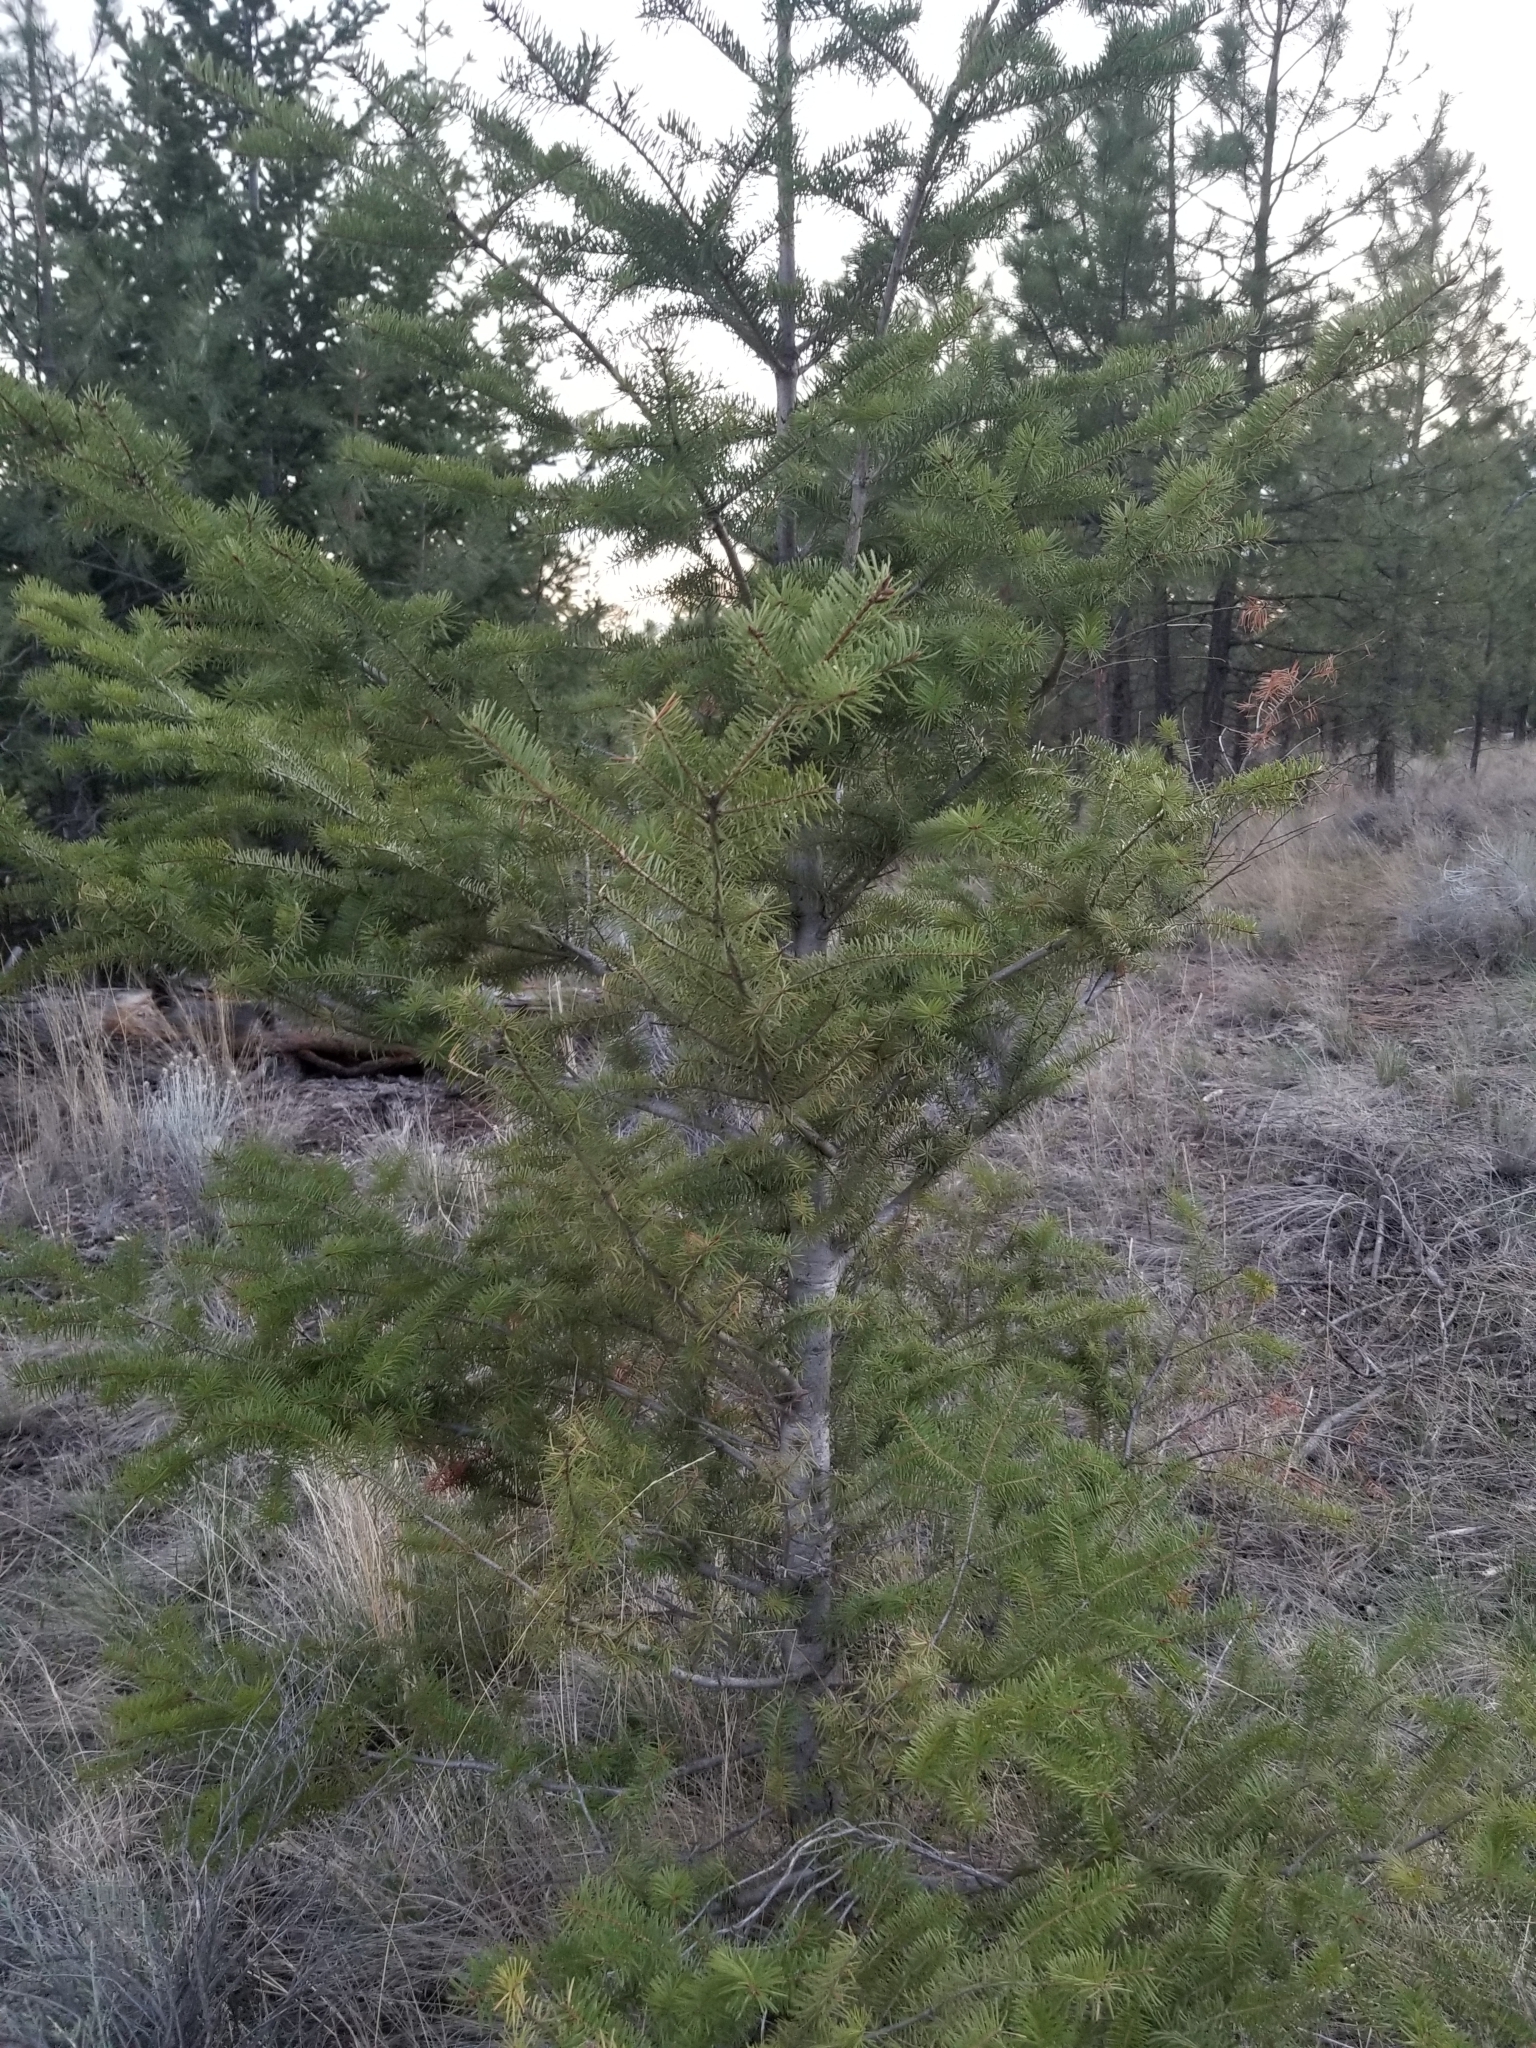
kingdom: Plantae
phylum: Tracheophyta
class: Pinopsida
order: Pinales
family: Pinaceae
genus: Pseudotsuga
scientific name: Pseudotsuga menziesii
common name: Douglas fir
